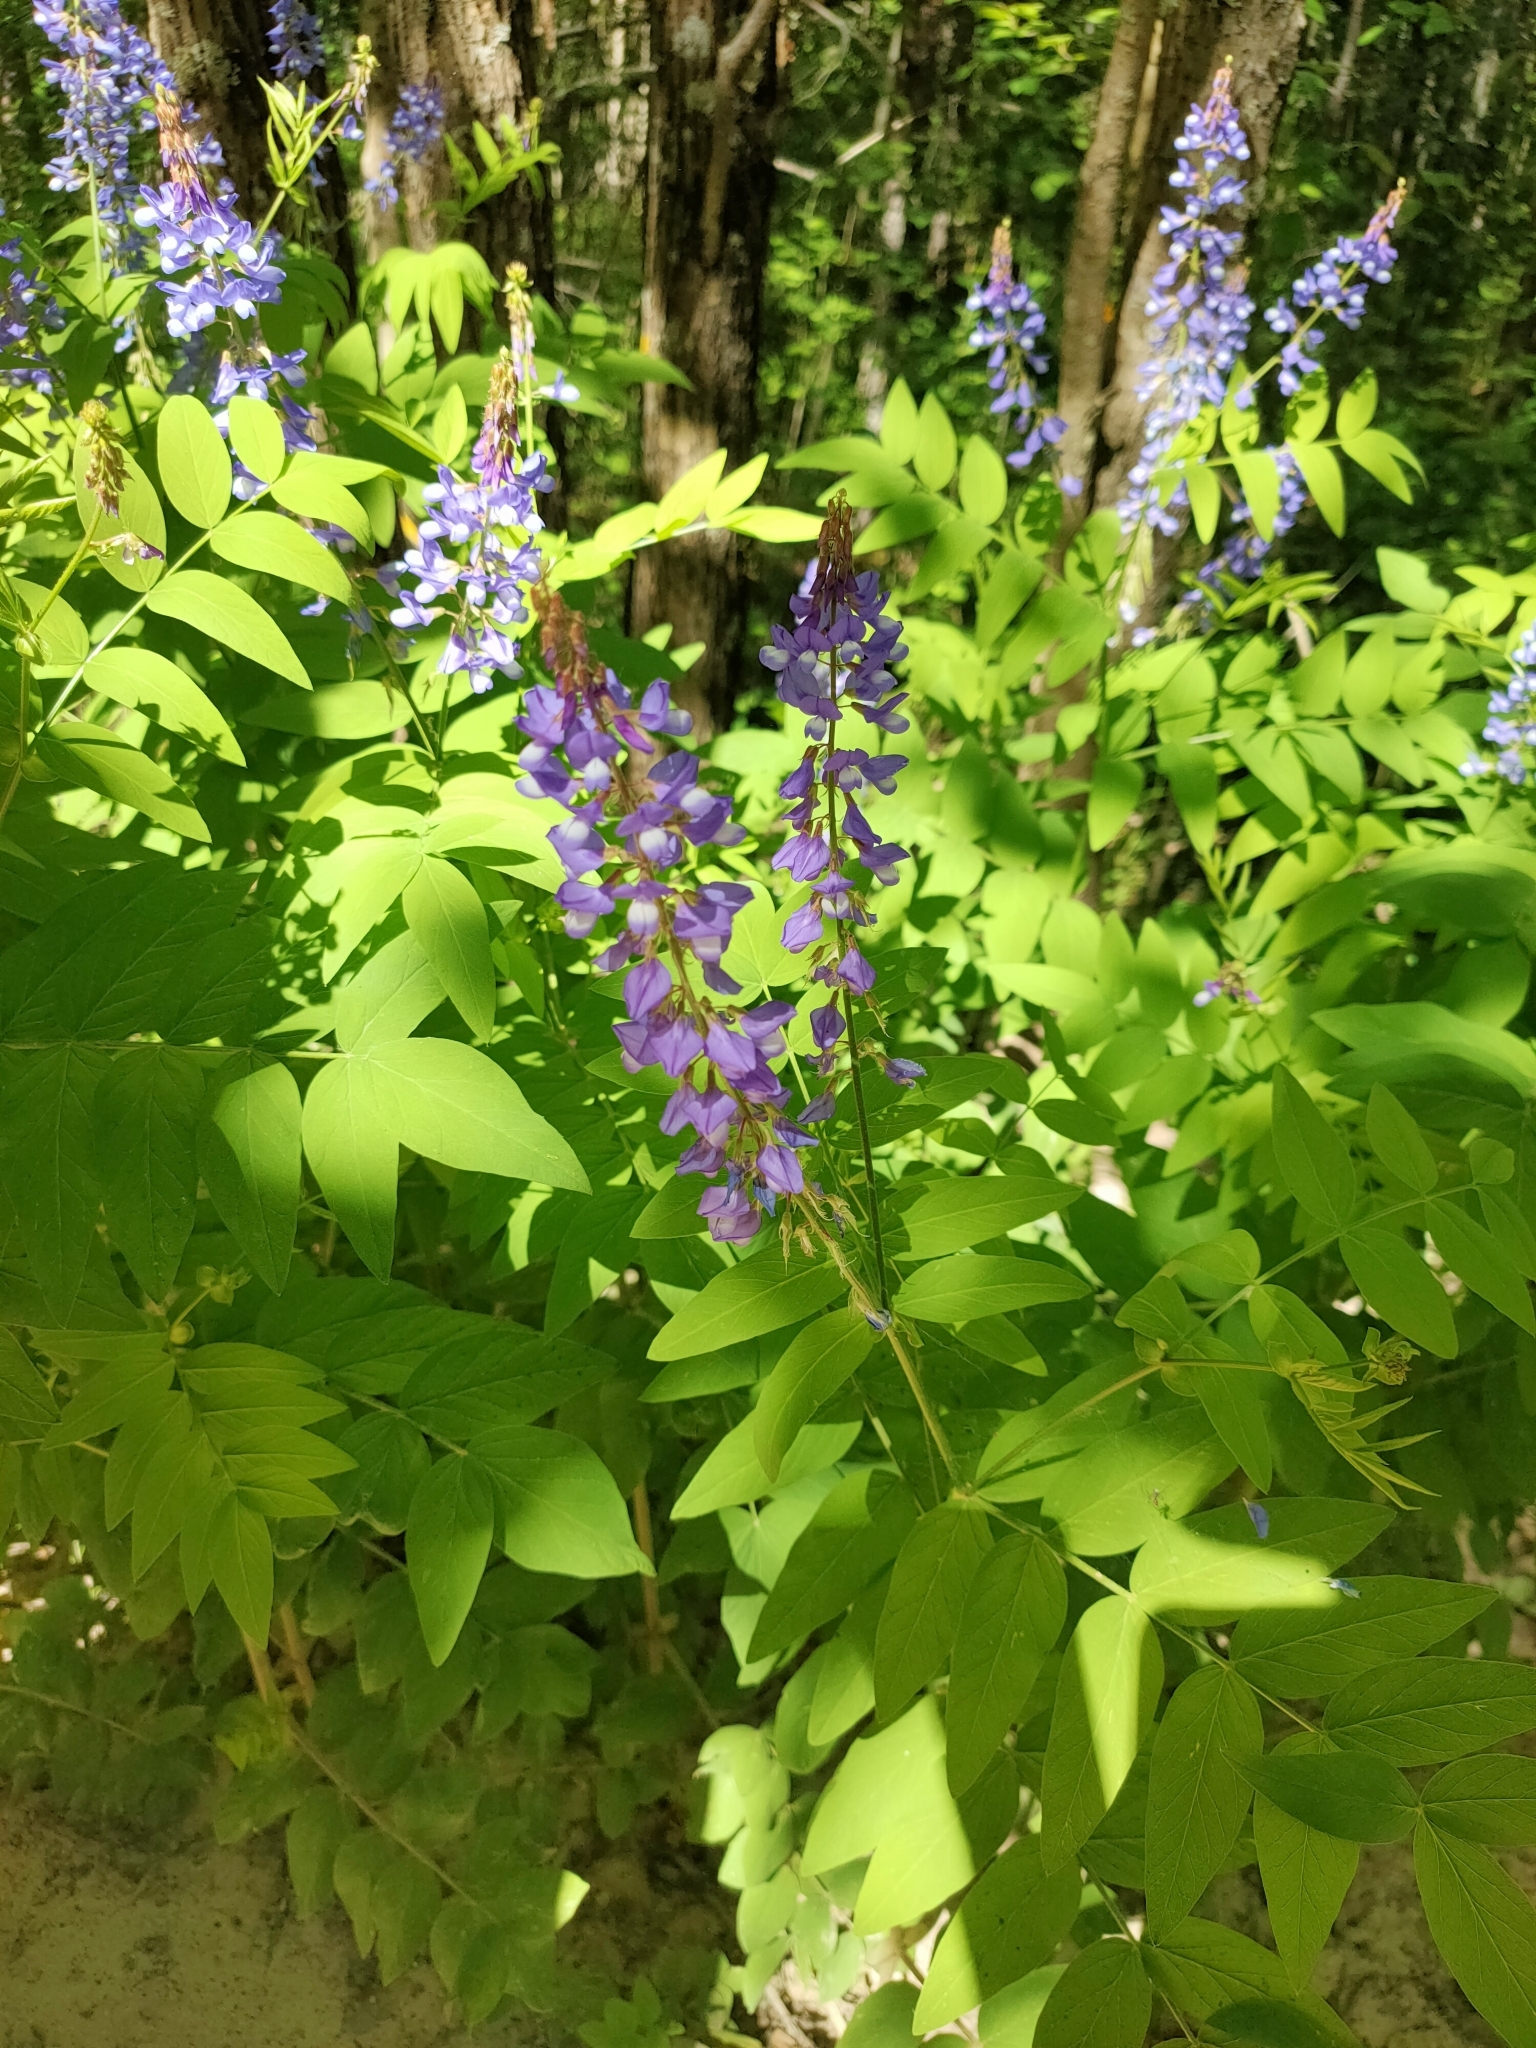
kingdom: Plantae
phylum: Tracheophyta
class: Magnoliopsida
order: Fabales
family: Fabaceae
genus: Galega
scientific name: Galega orientalis
